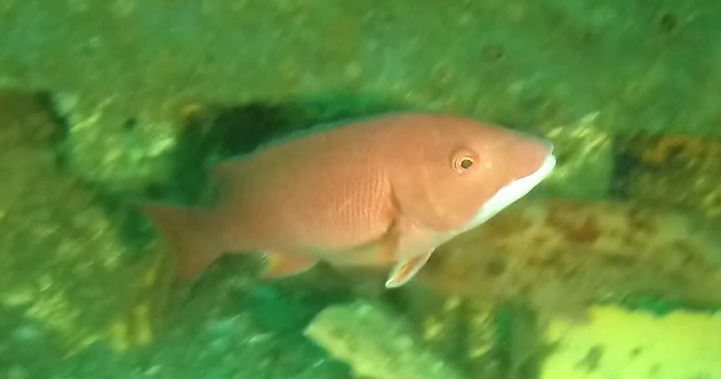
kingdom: Animalia
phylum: Chordata
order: Perciformes
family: Labridae
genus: Semicossyphus
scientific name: Semicossyphus pulcher
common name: California sheephead
